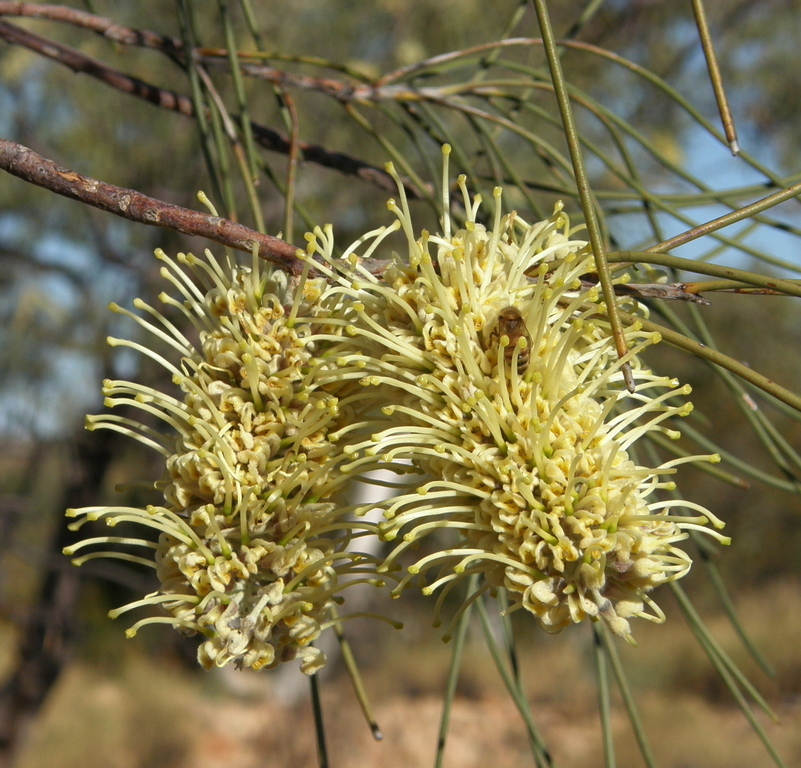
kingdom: Plantae
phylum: Tracheophyta
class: Magnoliopsida
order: Proteales
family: Proteaceae
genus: Hakea
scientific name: Hakea lorea
